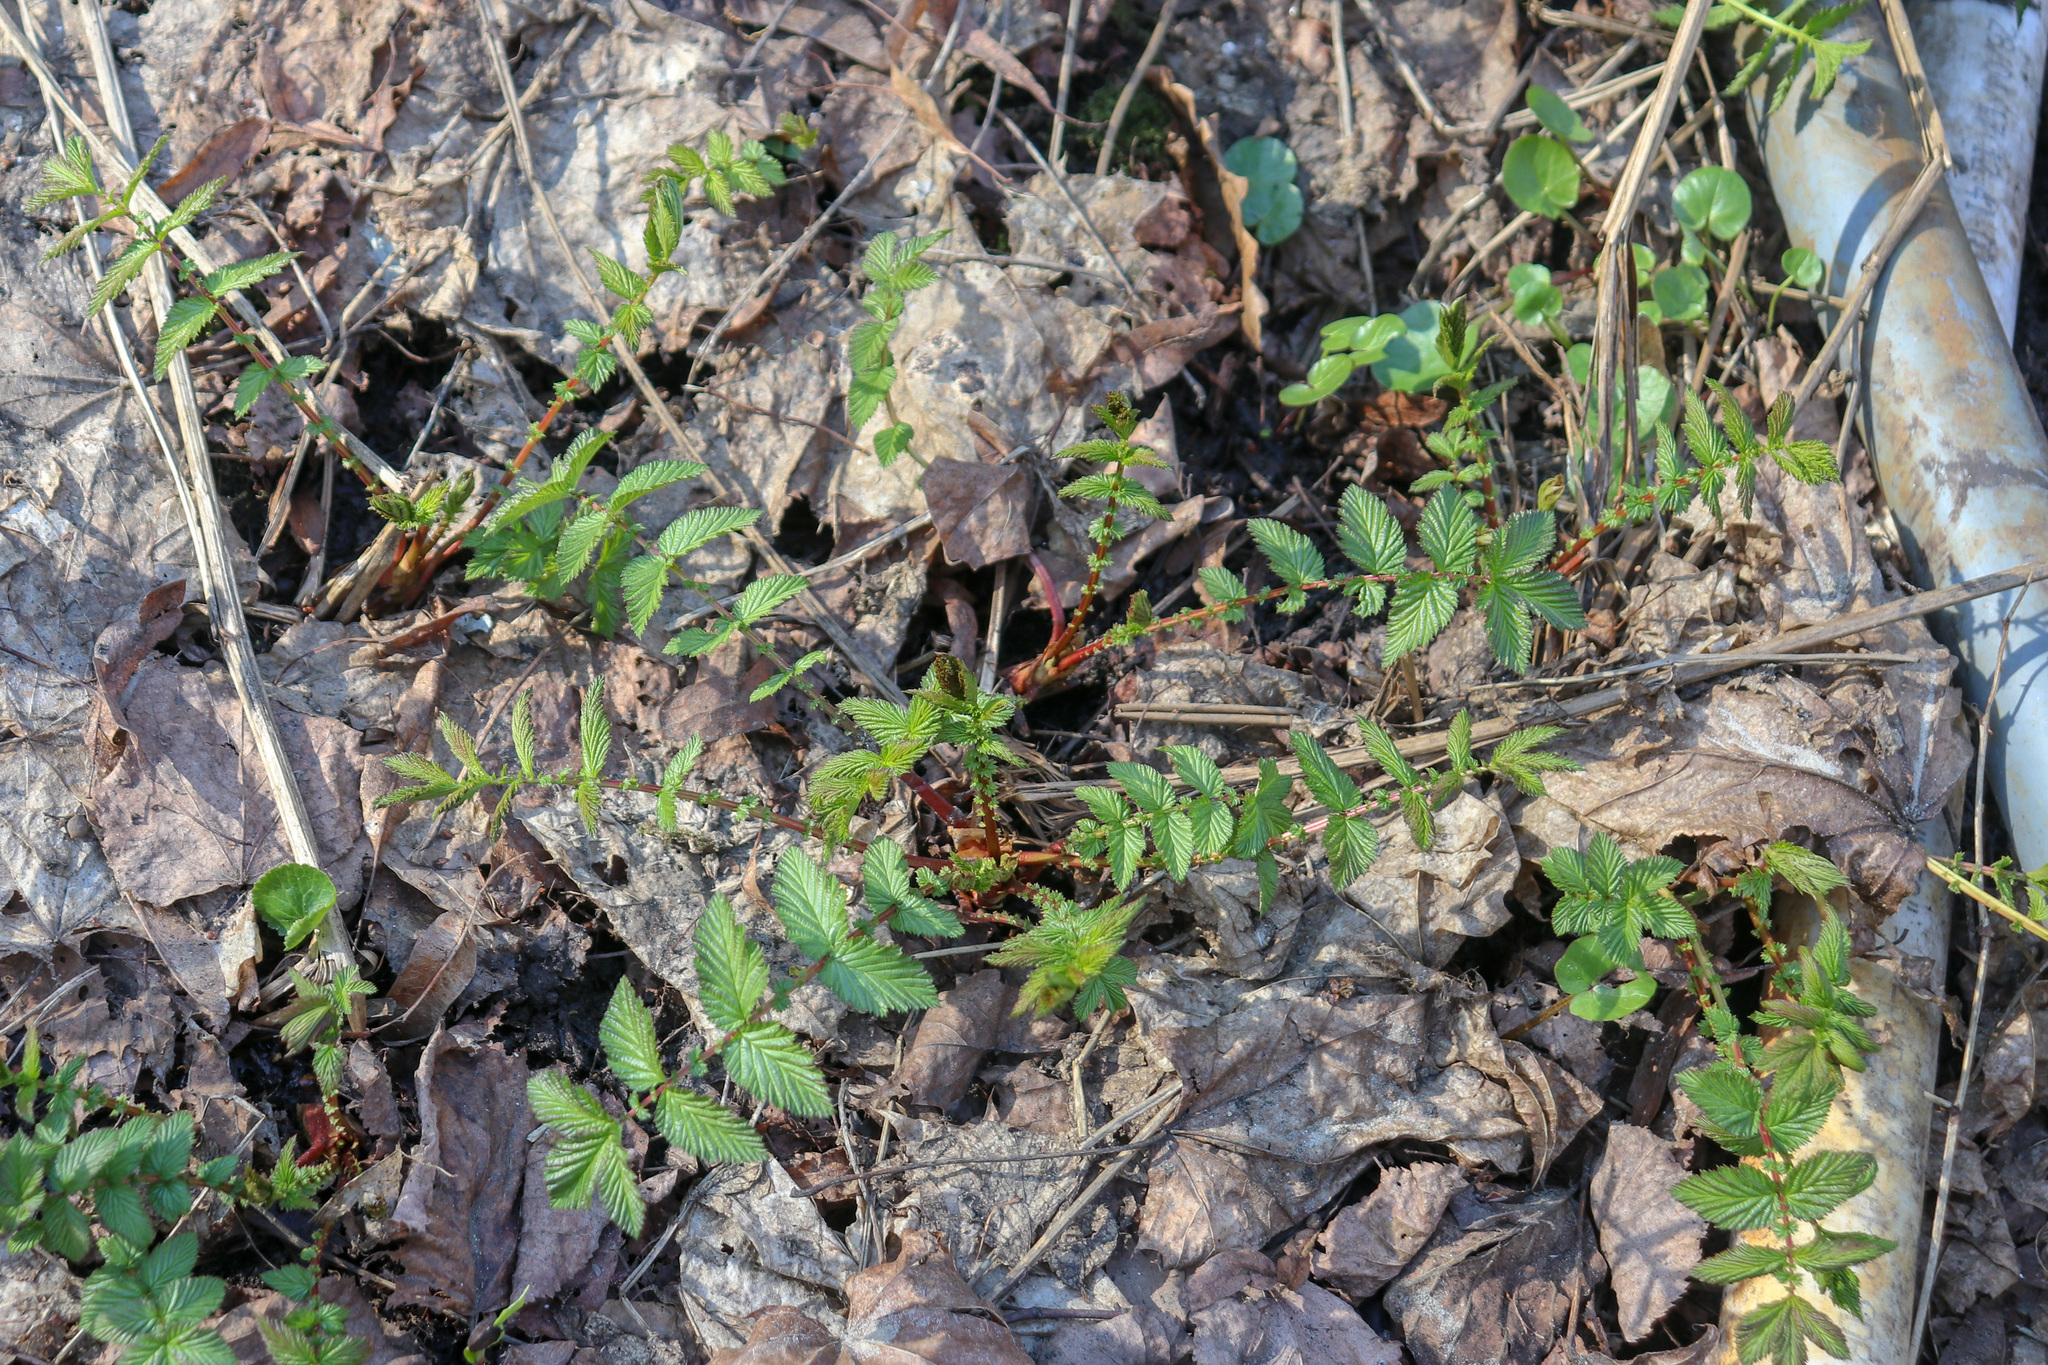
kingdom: Plantae
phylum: Tracheophyta
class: Magnoliopsida
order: Rosales
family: Rosaceae
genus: Filipendula
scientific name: Filipendula ulmaria
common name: Meadowsweet
